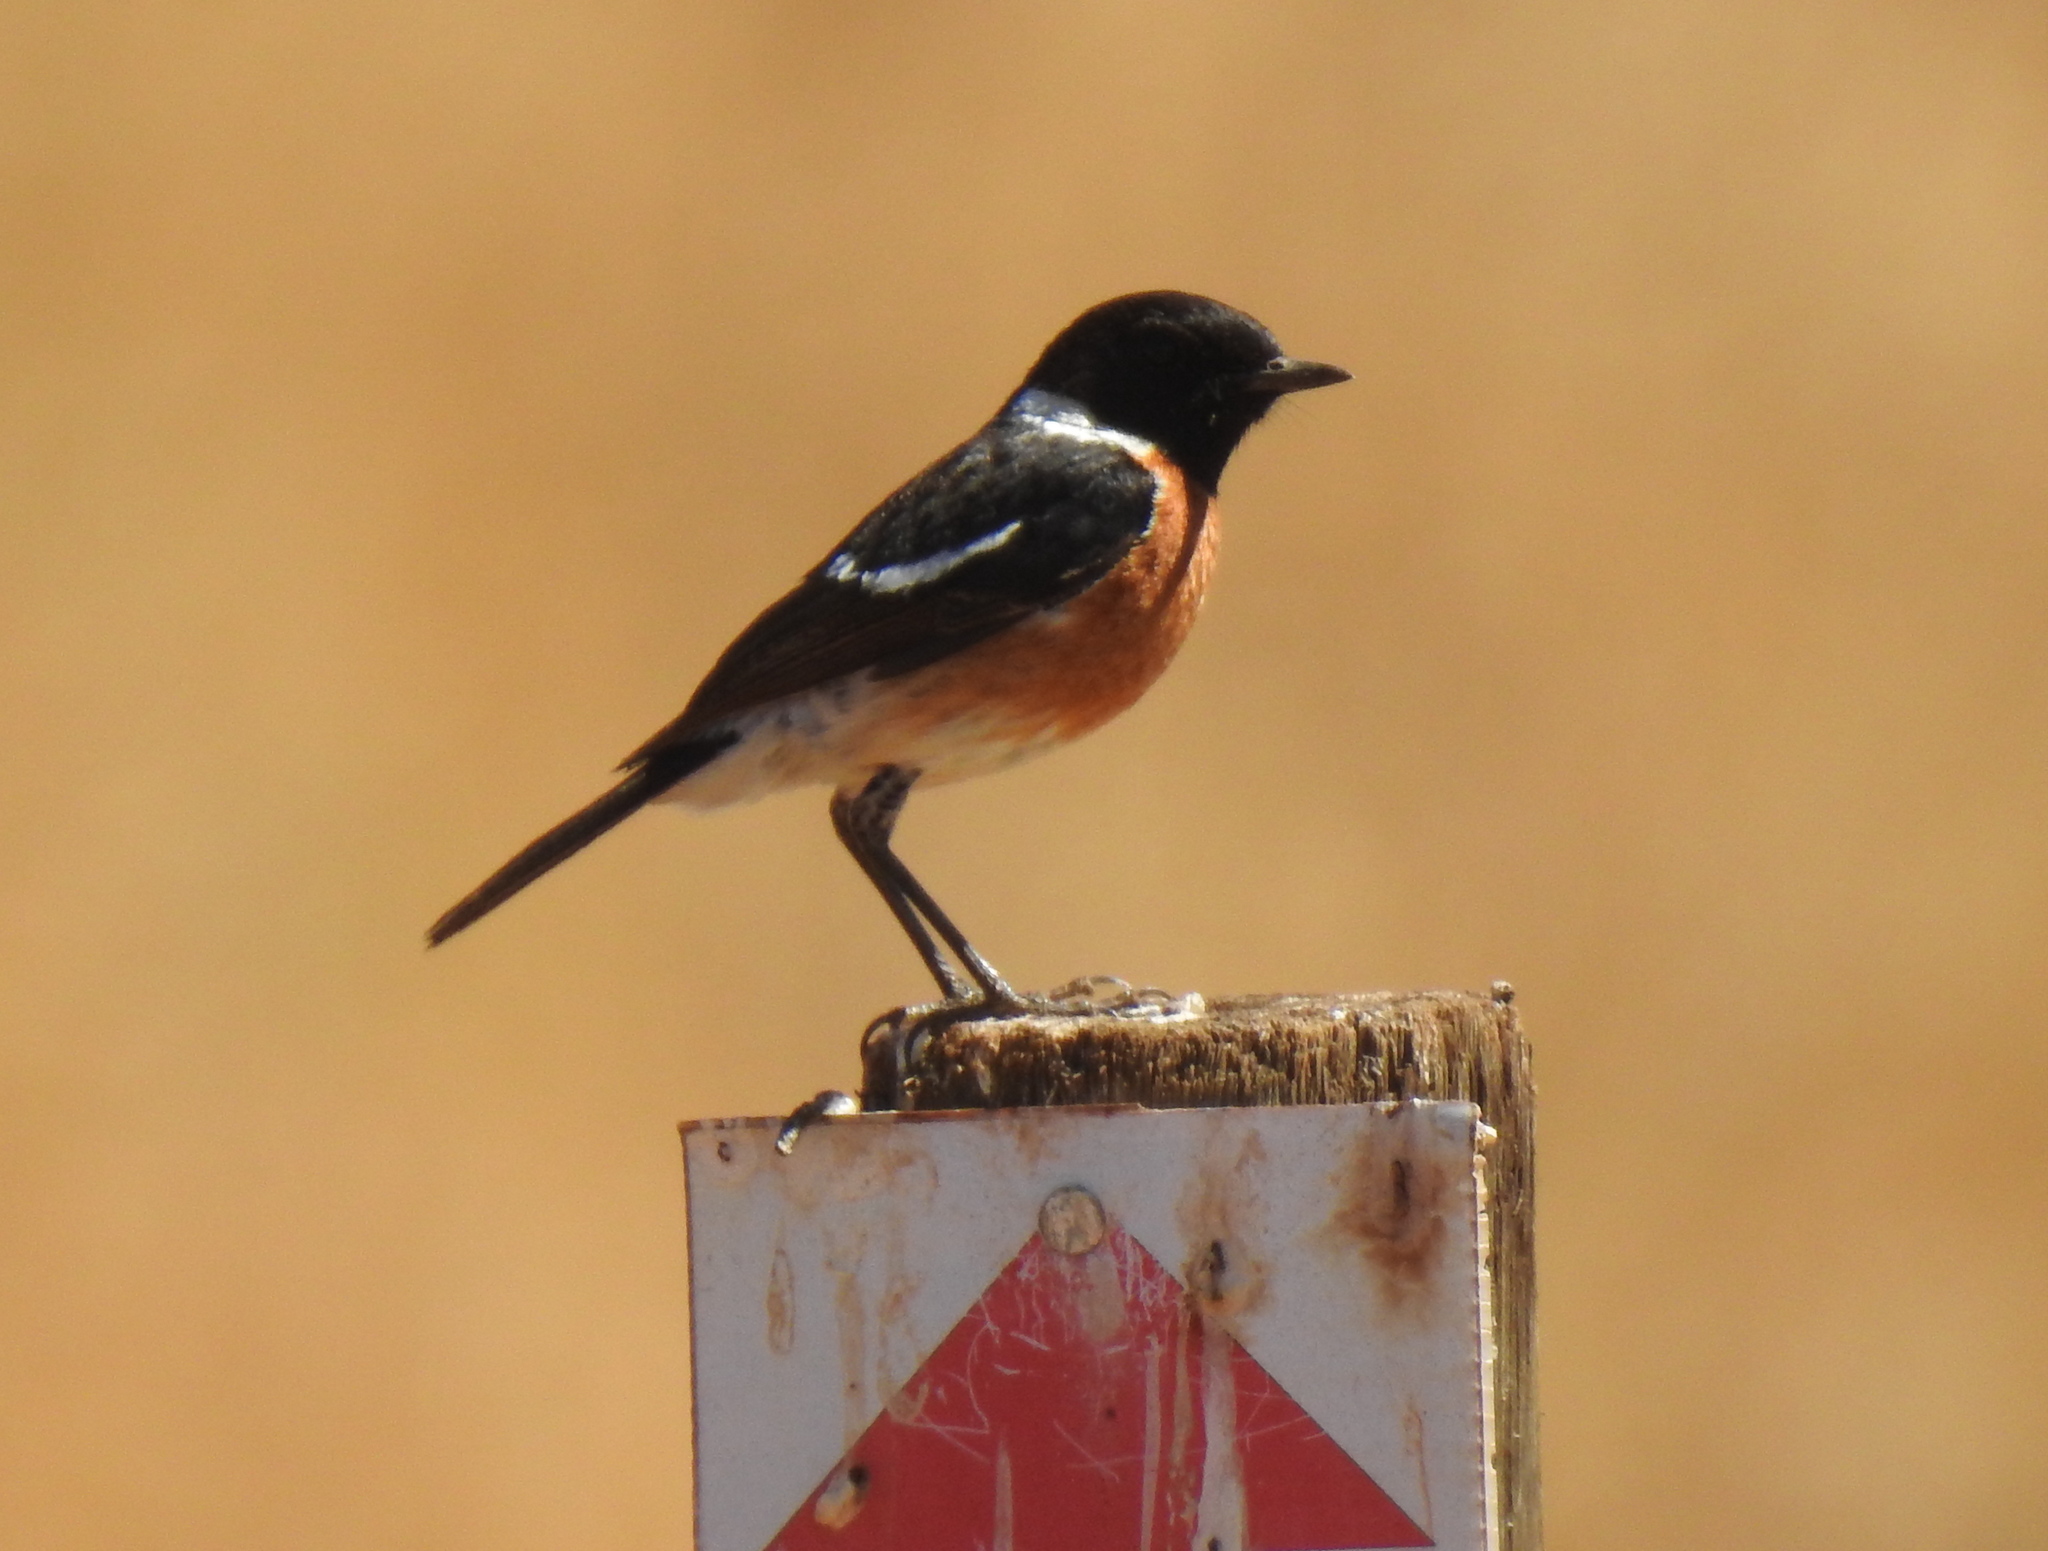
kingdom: Animalia
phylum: Chordata
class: Aves
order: Passeriformes
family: Muscicapidae
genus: Saxicola
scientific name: Saxicola torquatus
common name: African stonechat
